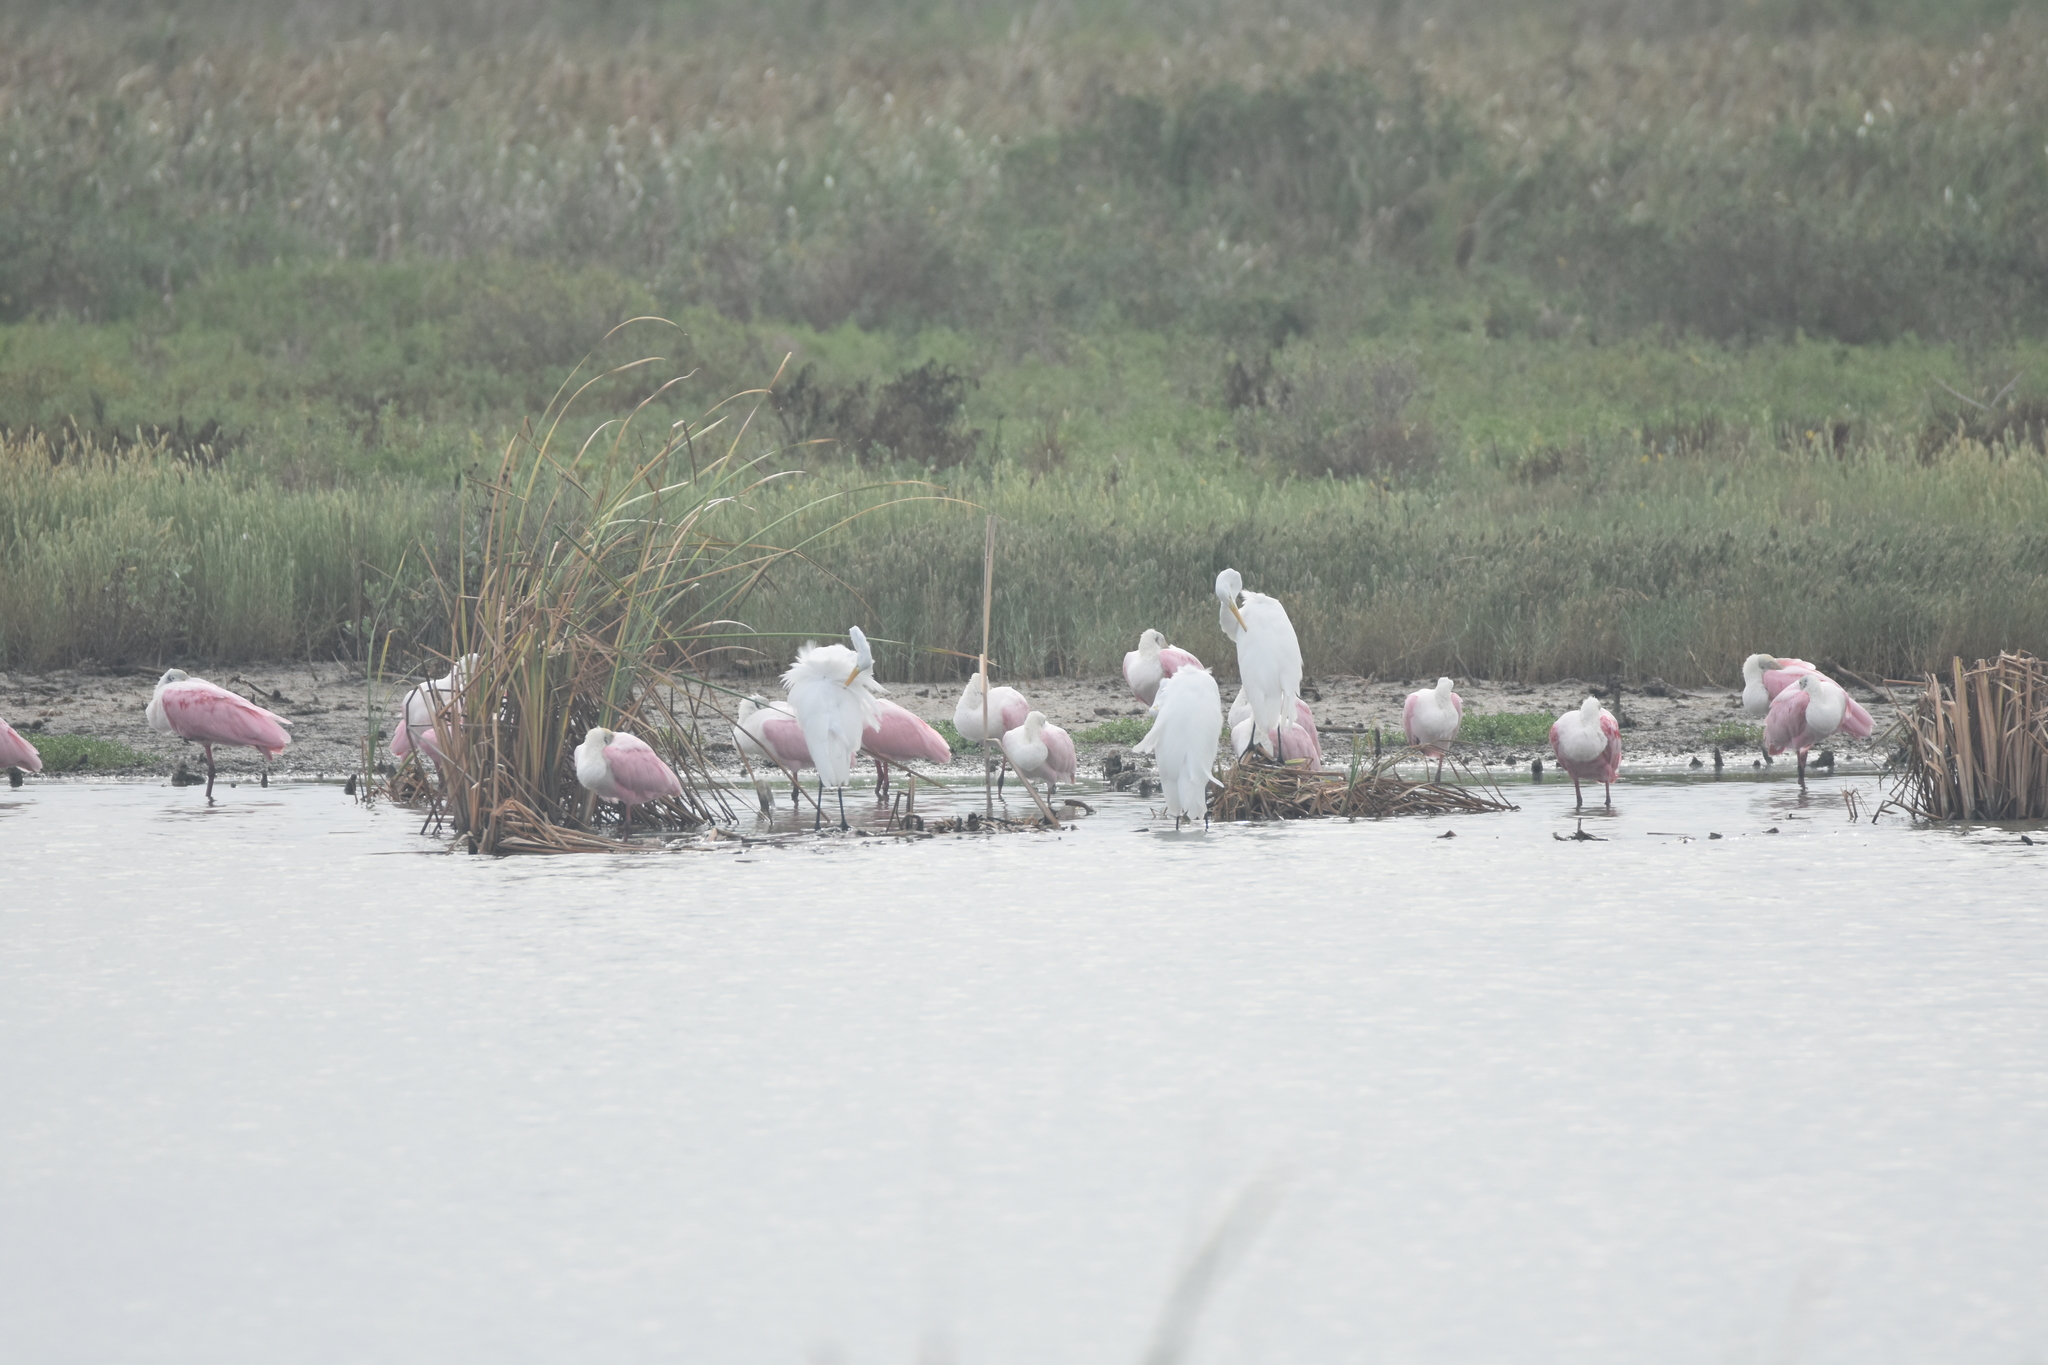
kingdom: Animalia
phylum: Chordata
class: Aves
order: Pelecaniformes
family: Threskiornithidae
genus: Platalea
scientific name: Platalea ajaja
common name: Roseate spoonbill
